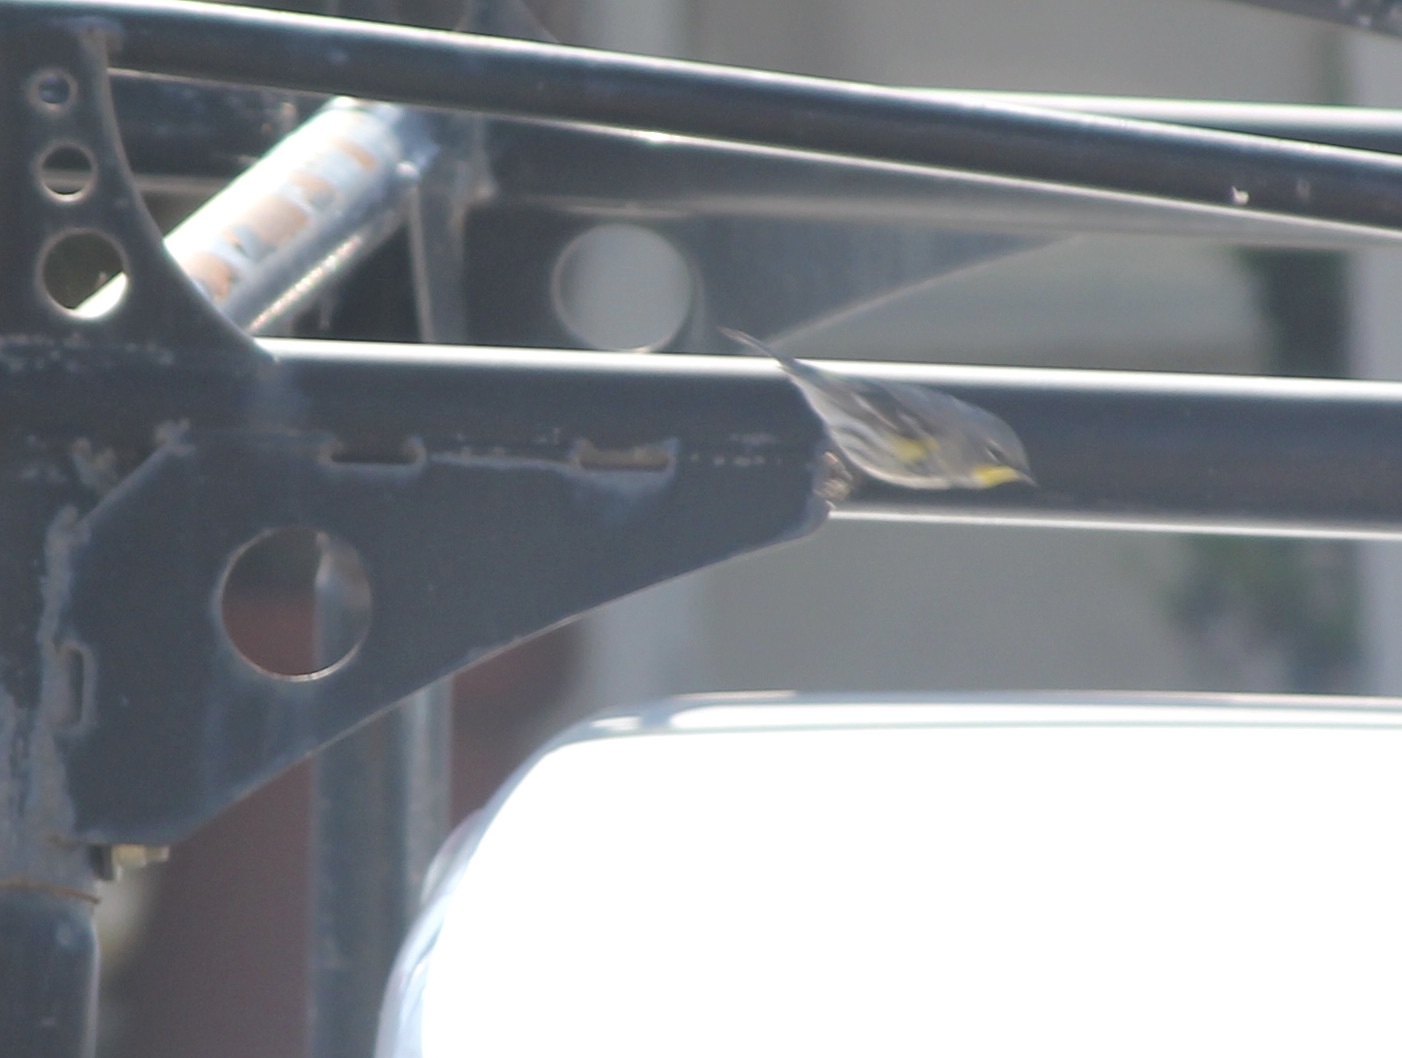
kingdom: Animalia
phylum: Chordata
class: Aves
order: Passeriformes
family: Parulidae
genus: Setophaga
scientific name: Setophaga coronata
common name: Myrtle warbler
